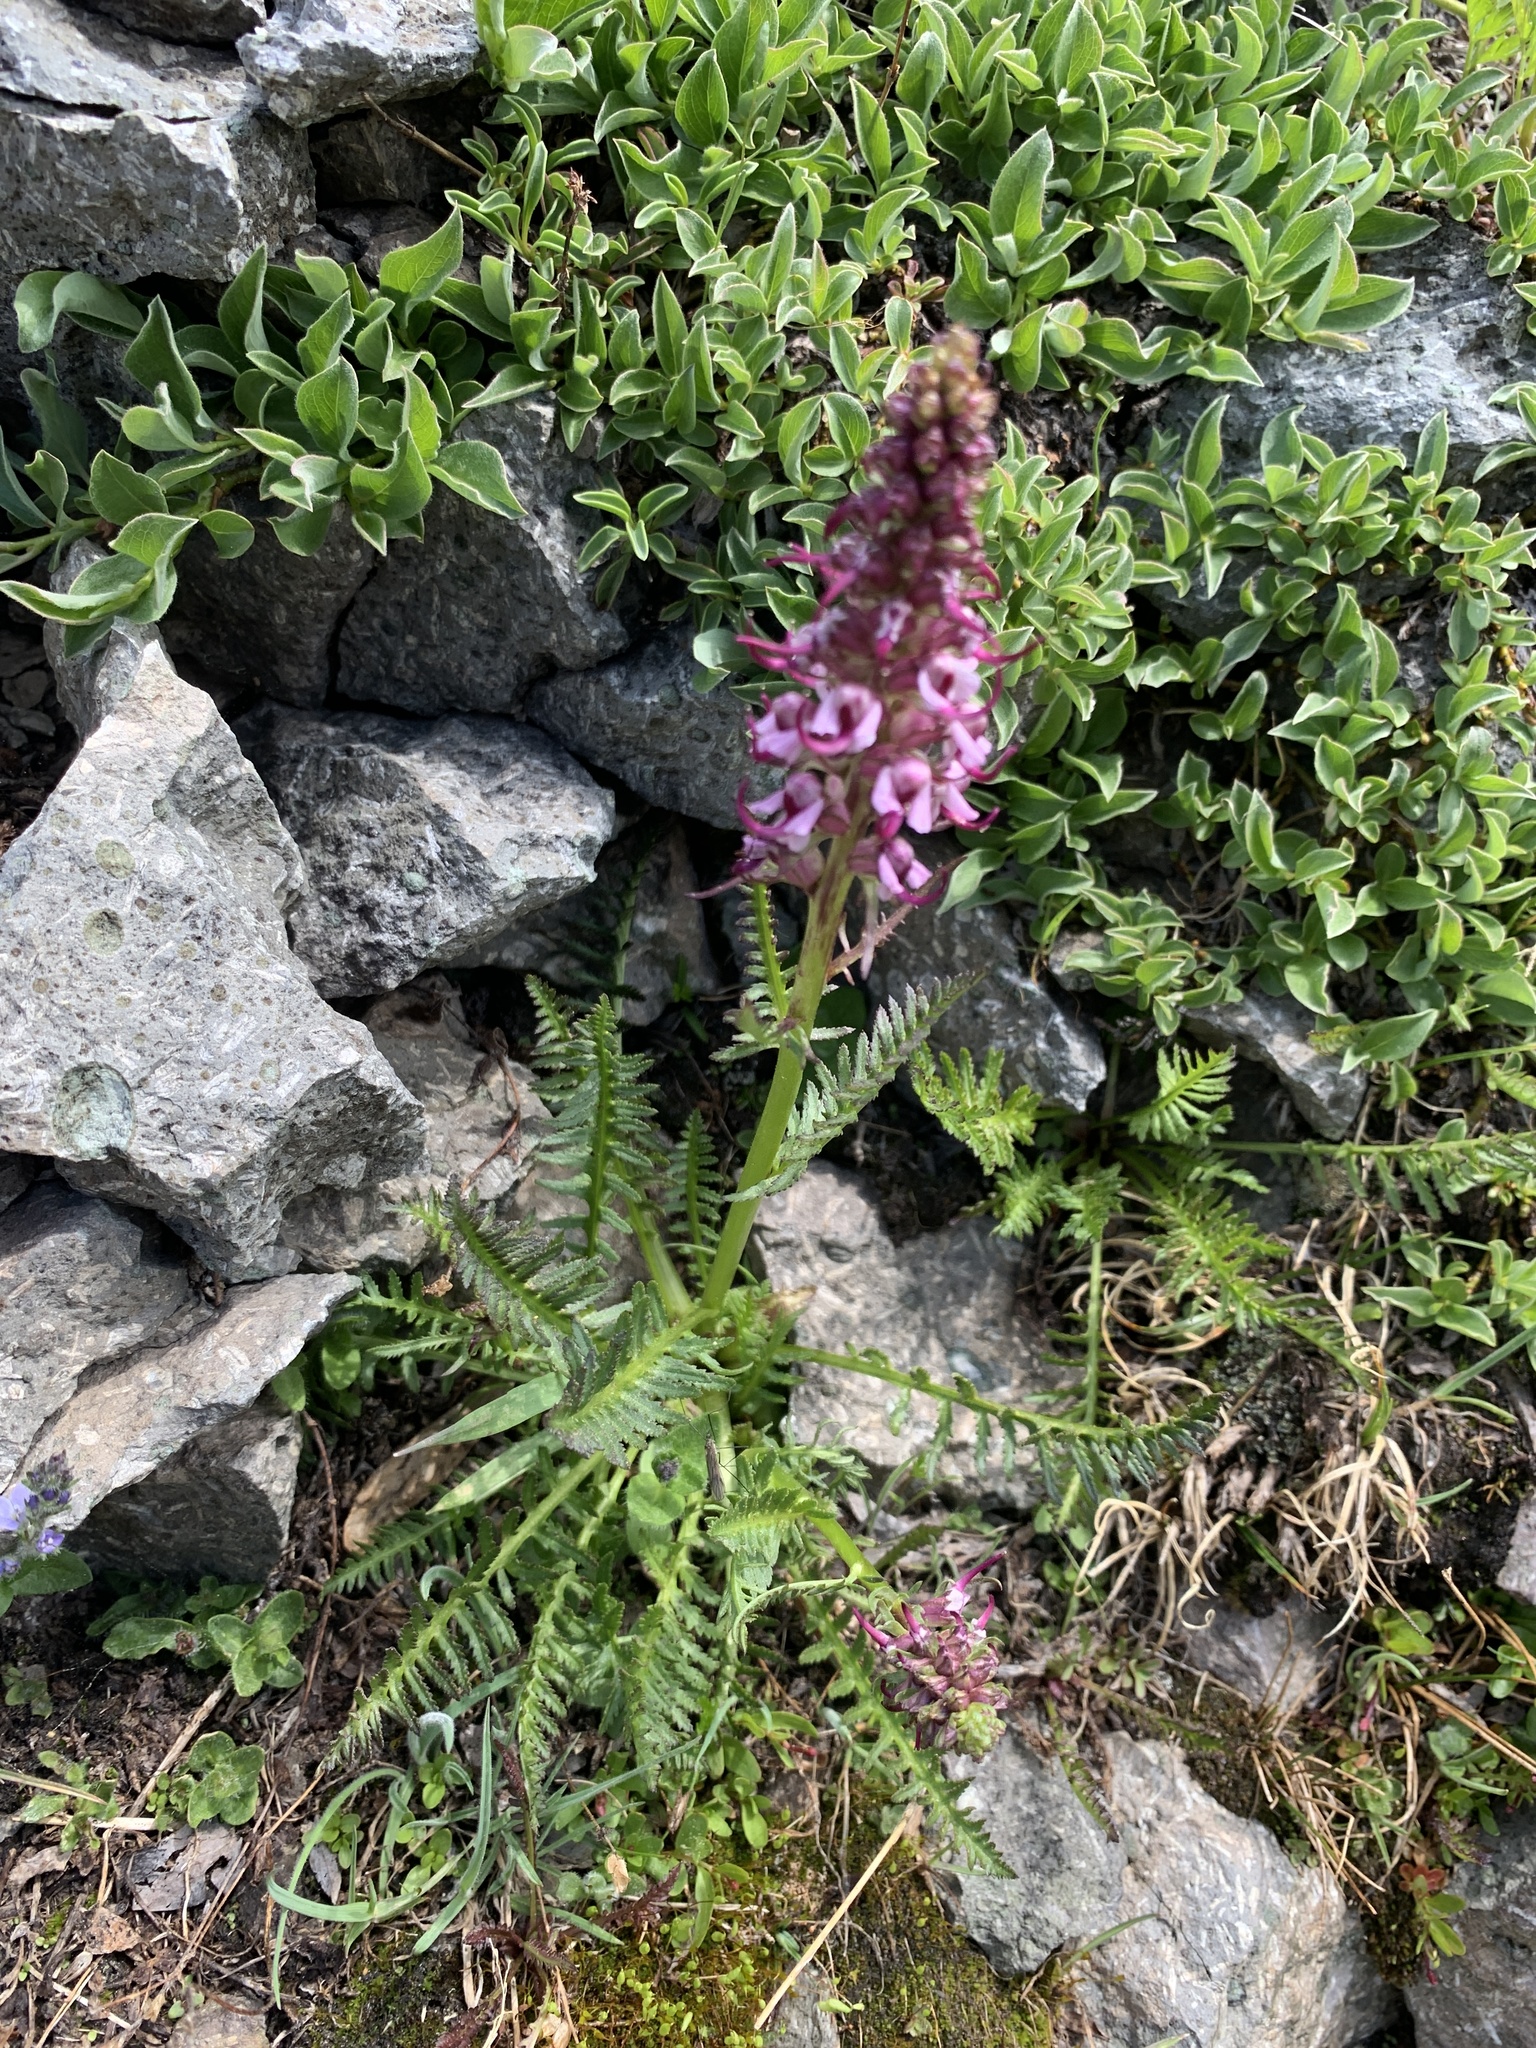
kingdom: Plantae
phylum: Tracheophyta
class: Magnoliopsida
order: Lamiales
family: Orobanchaceae
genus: Pedicularis
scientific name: Pedicularis groenlandica
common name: Elephant's-head
